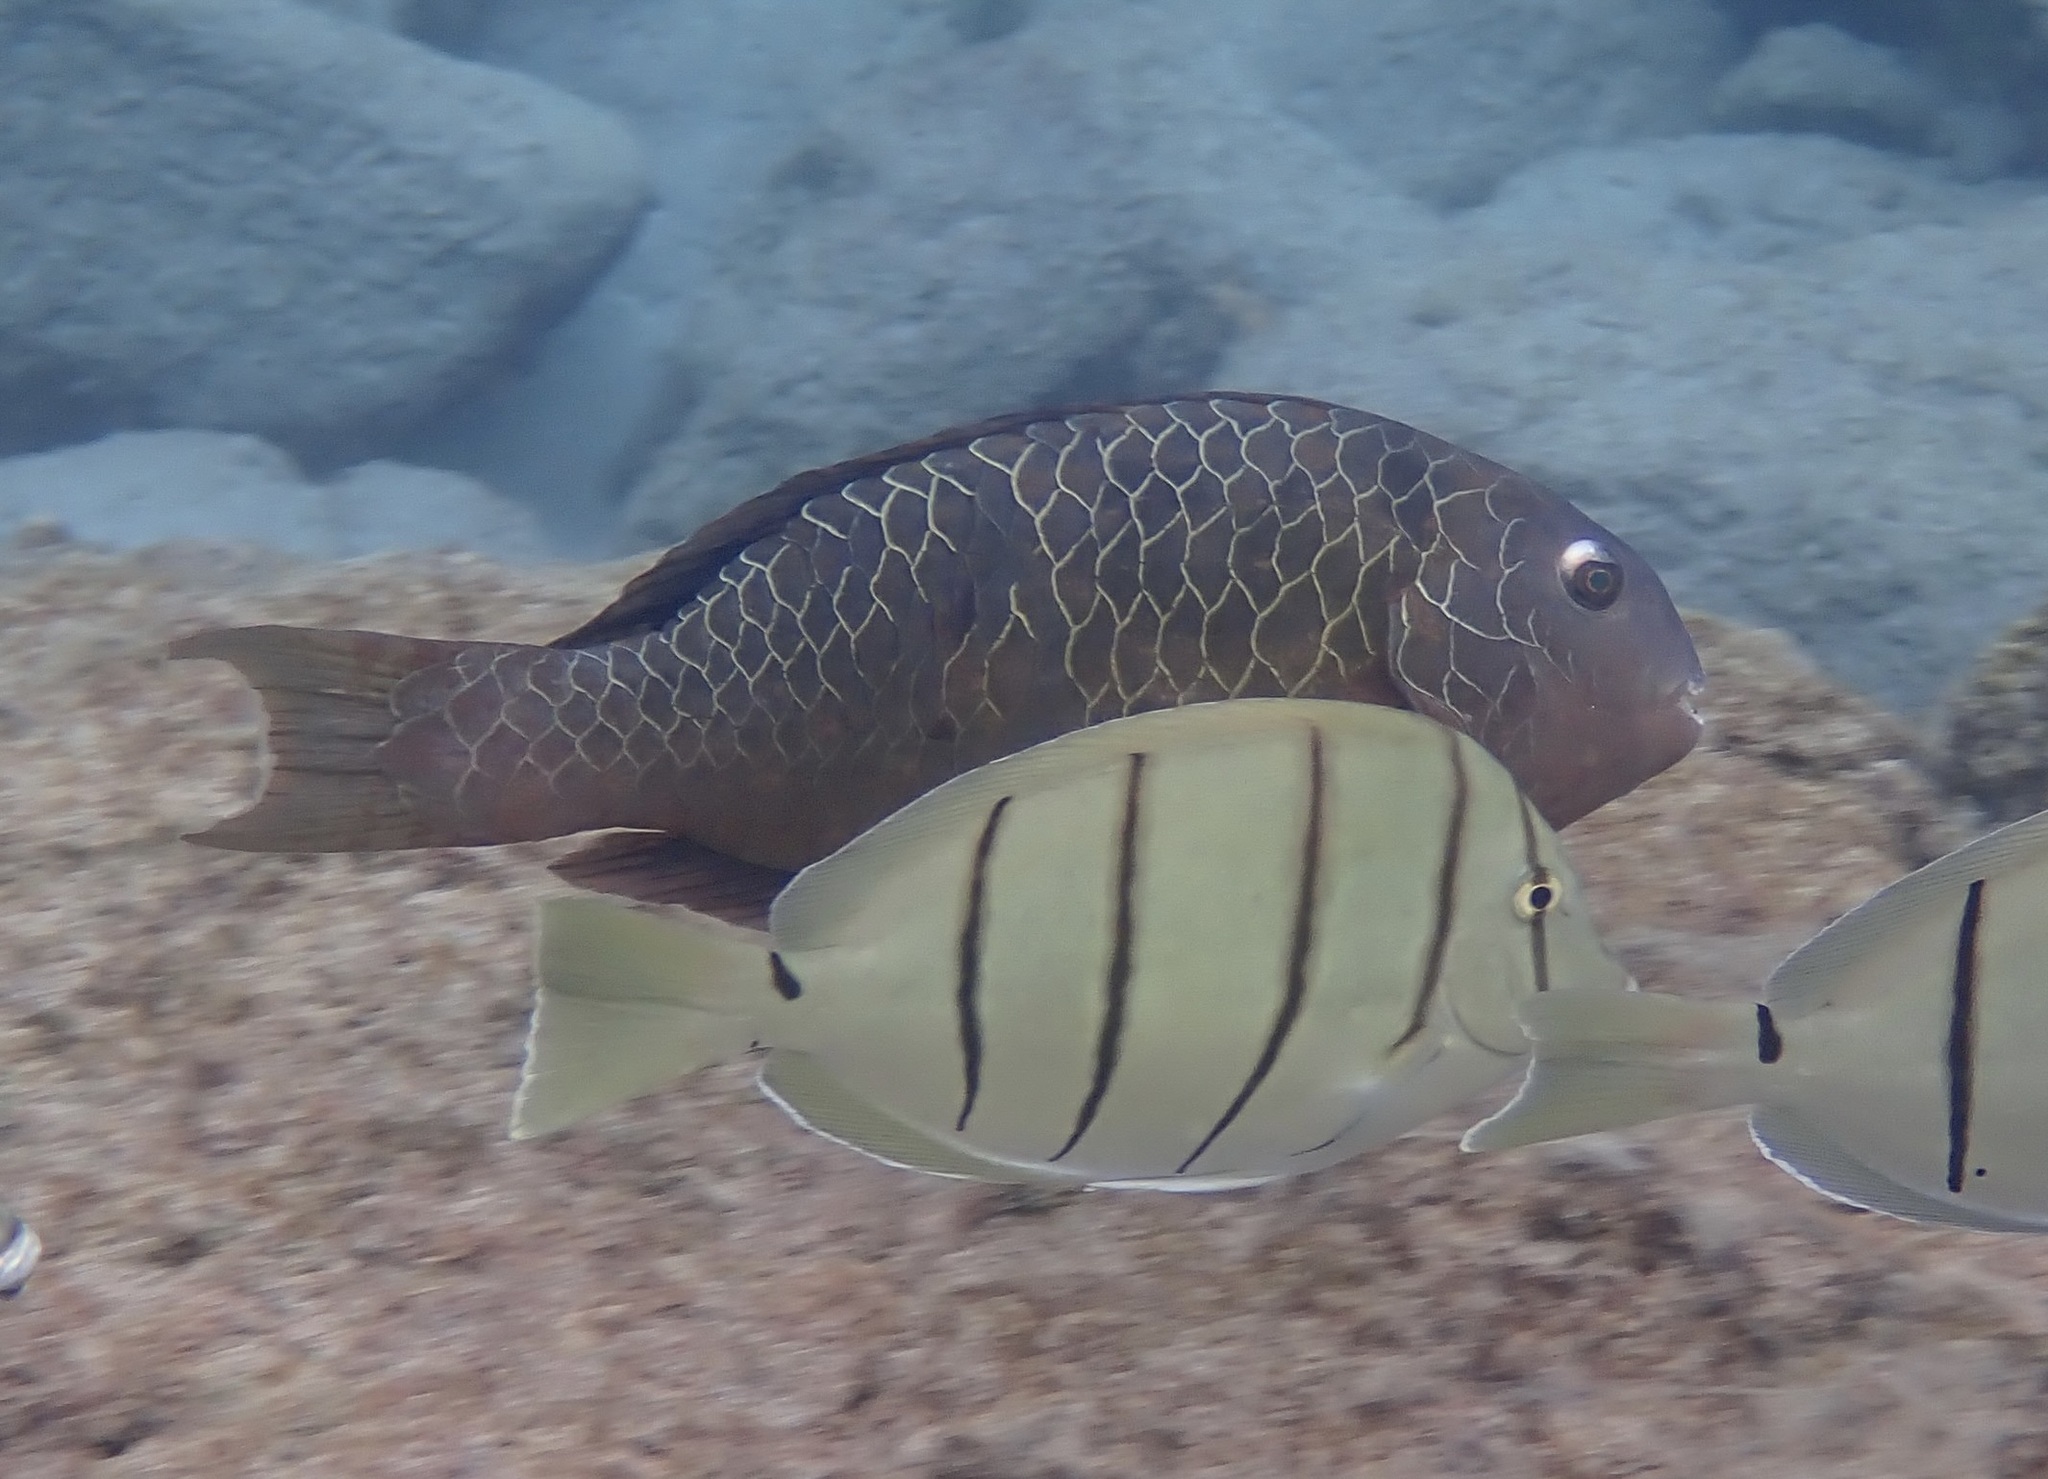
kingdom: Animalia
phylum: Chordata
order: Perciformes
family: Scaridae
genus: Calotomus
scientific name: Calotomus carolinus
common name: Bucktooth
